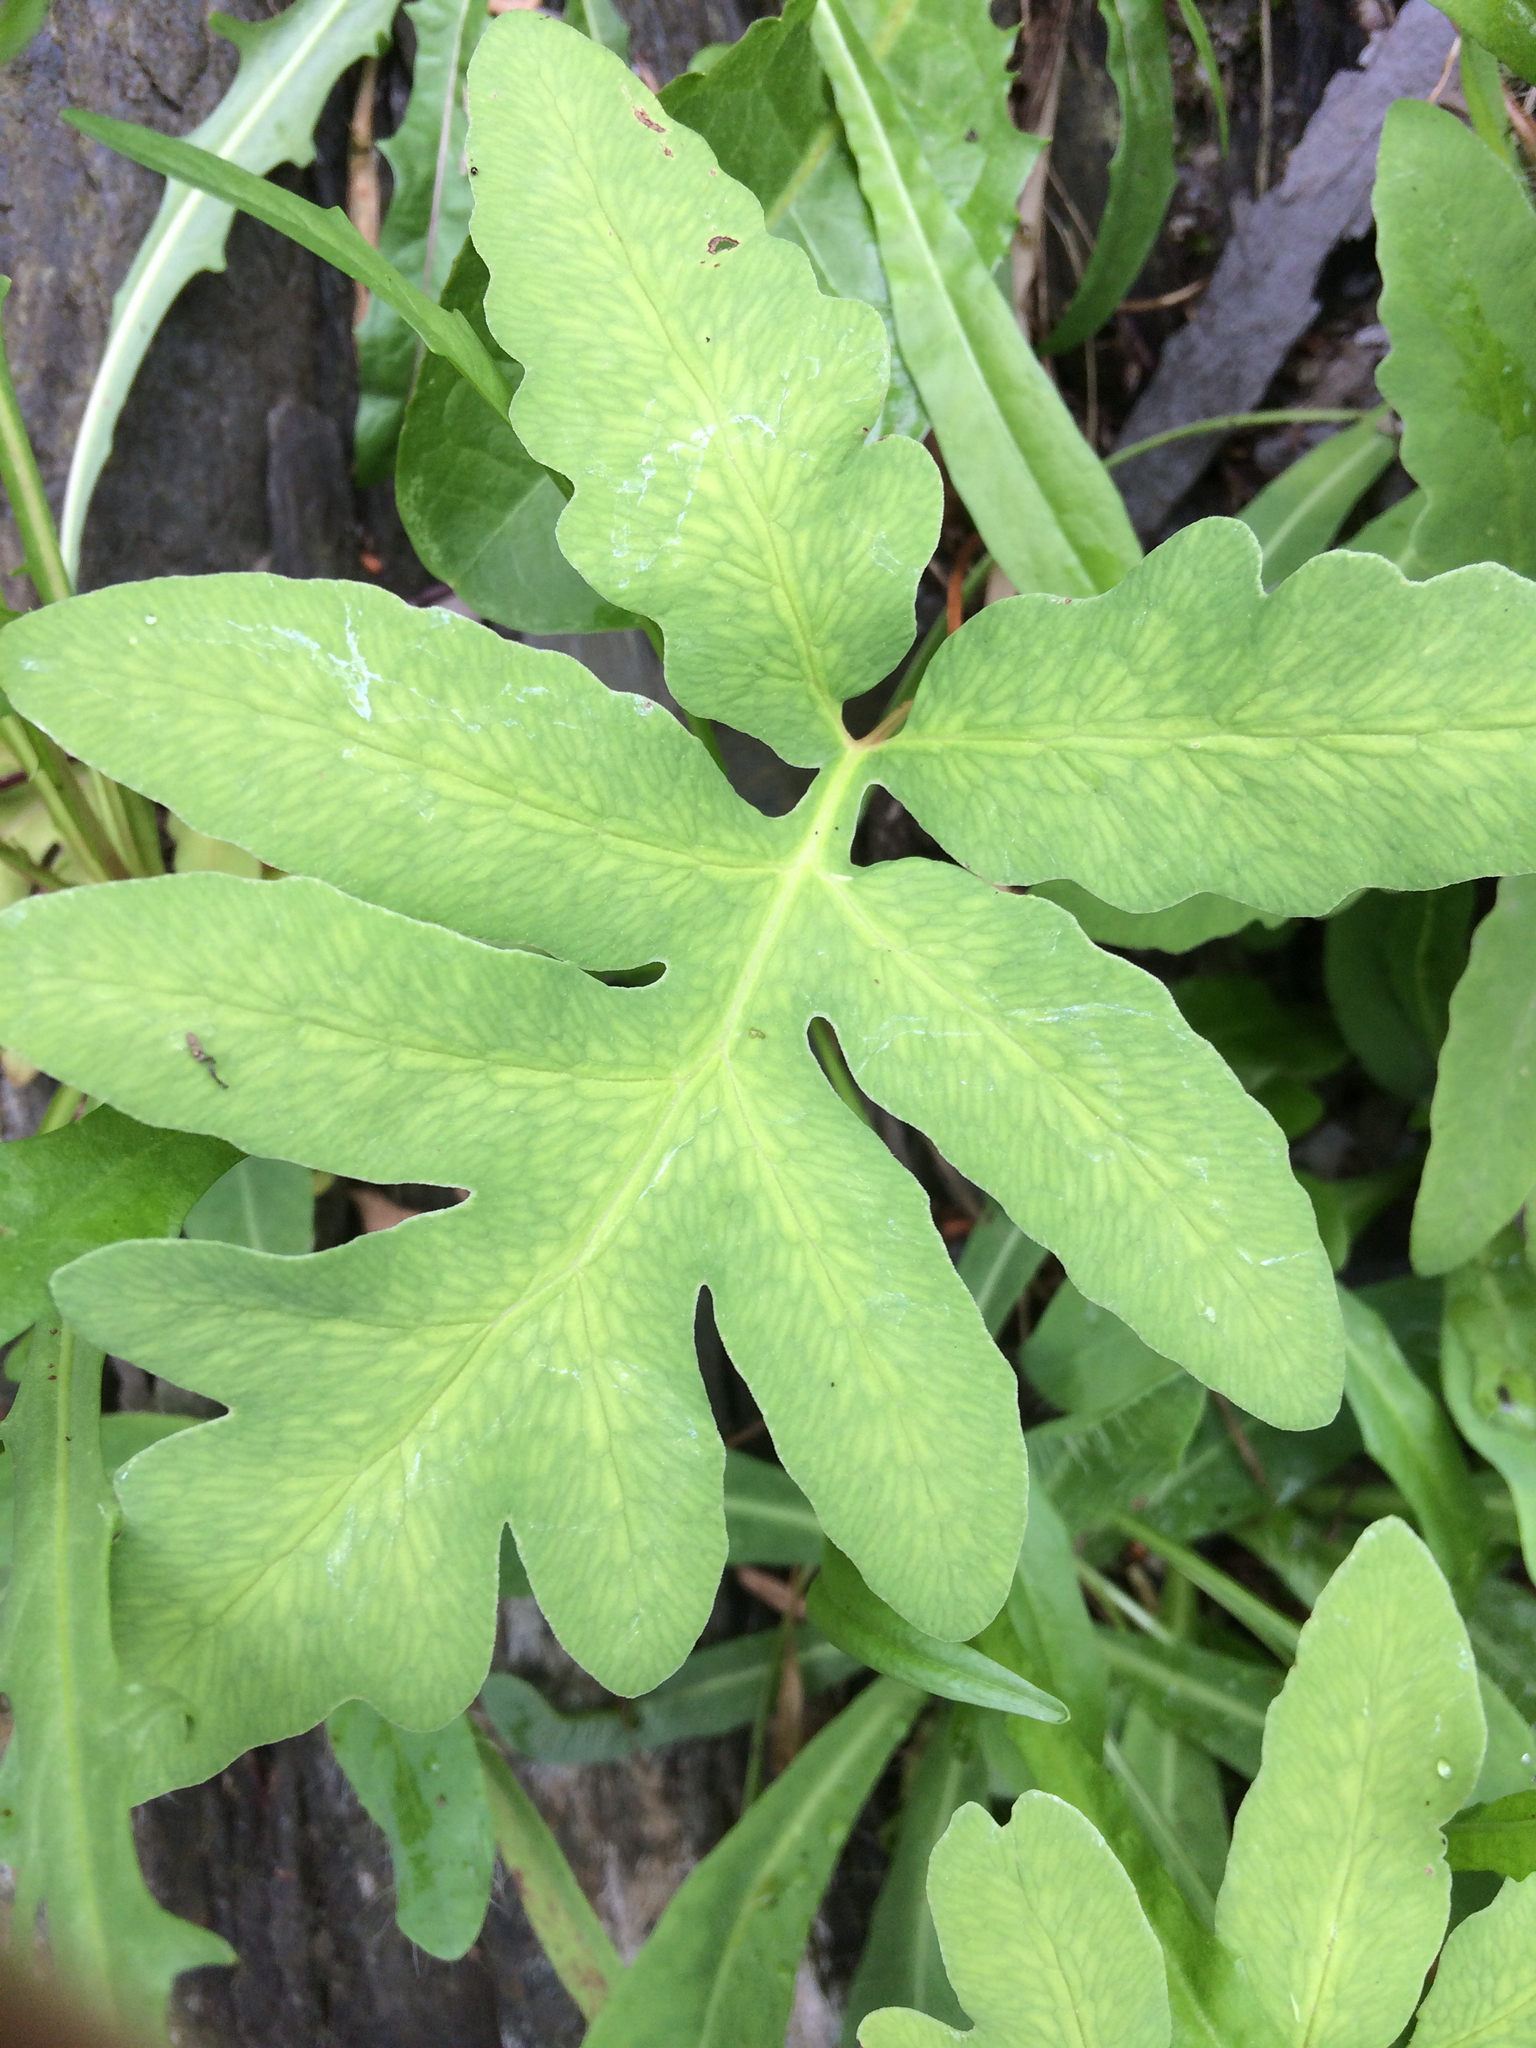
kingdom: Plantae
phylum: Tracheophyta
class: Polypodiopsida
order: Polypodiales
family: Onocleaceae
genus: Onoclea
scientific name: Onoclea sensibilis
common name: Sensitive fern
